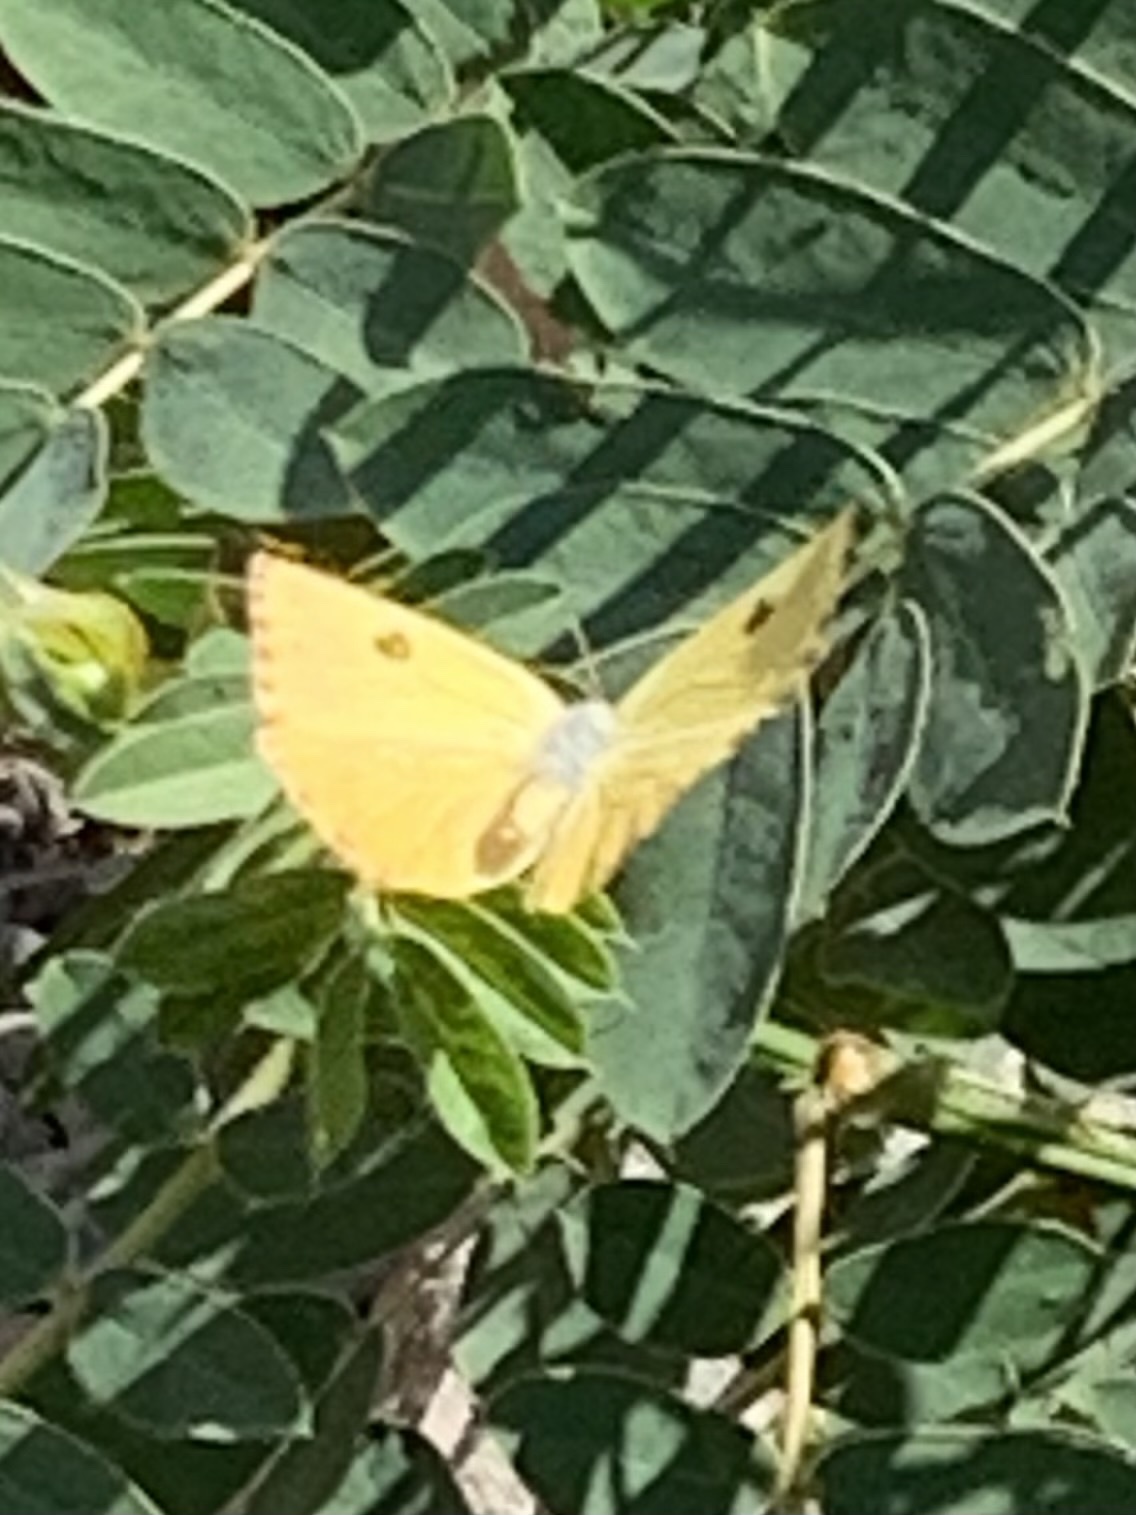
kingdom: Animalia
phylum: Arthropoda
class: Insecta
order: Lepidoptera
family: Pieridae
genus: Phoebis
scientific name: Phoebis marcellina
